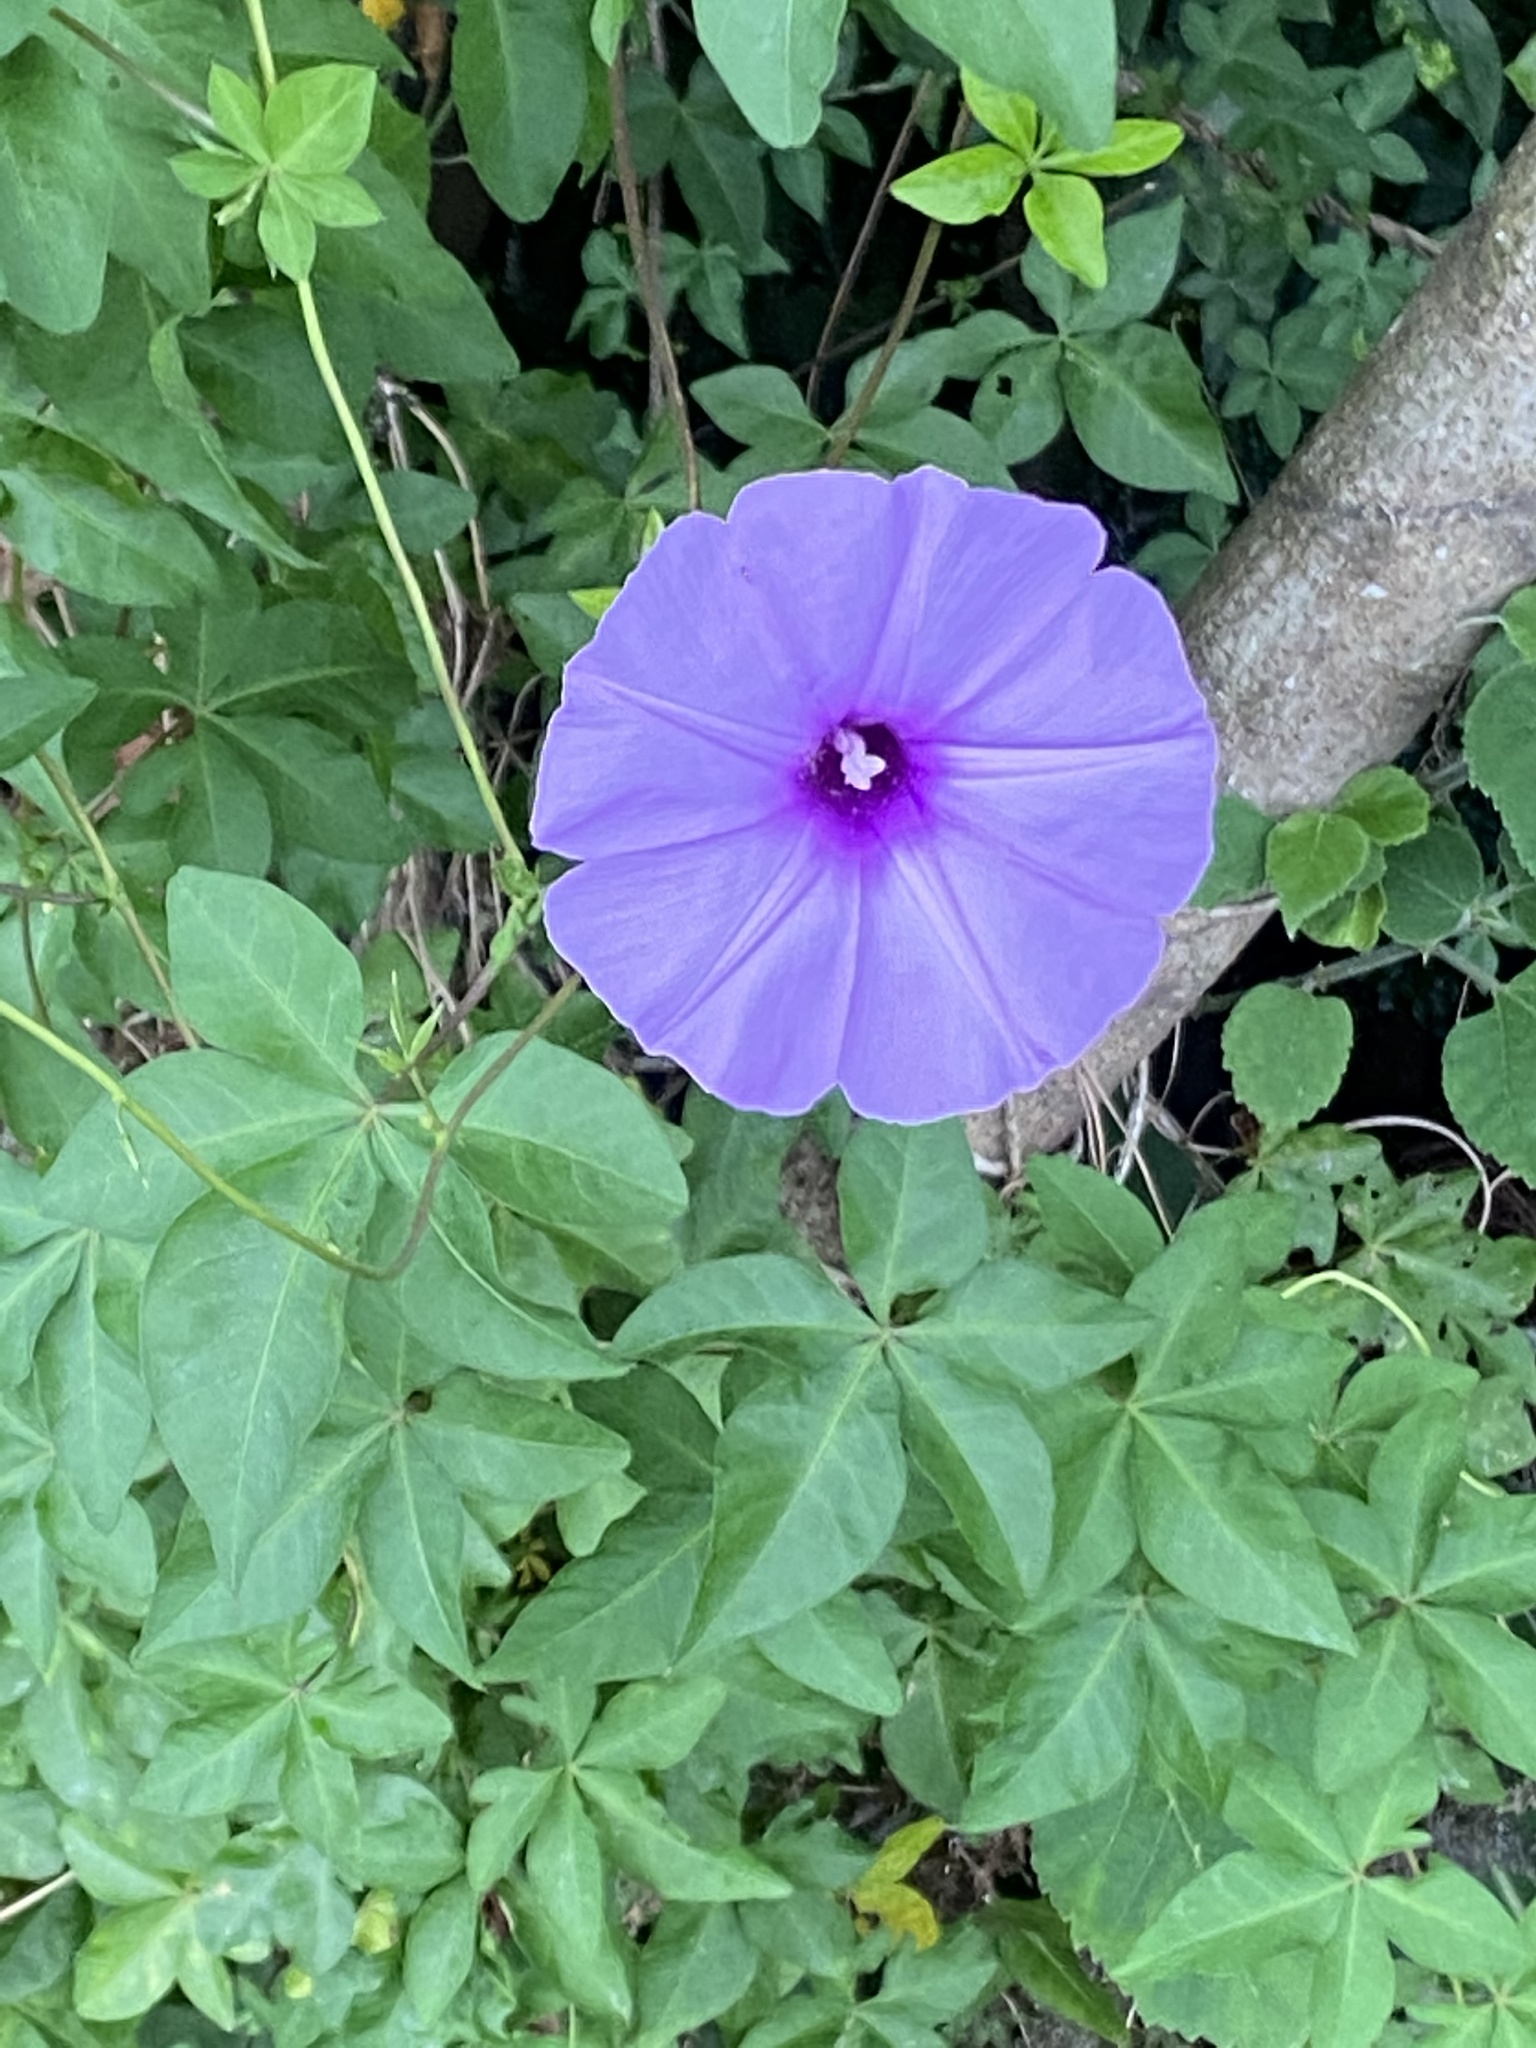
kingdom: Plantae
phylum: Tracheophyta
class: Magnoliopsida
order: Solanales
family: Convolvulaceae
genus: Ipomoea
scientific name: Ipomoea cairica
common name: Mile a minute vine
